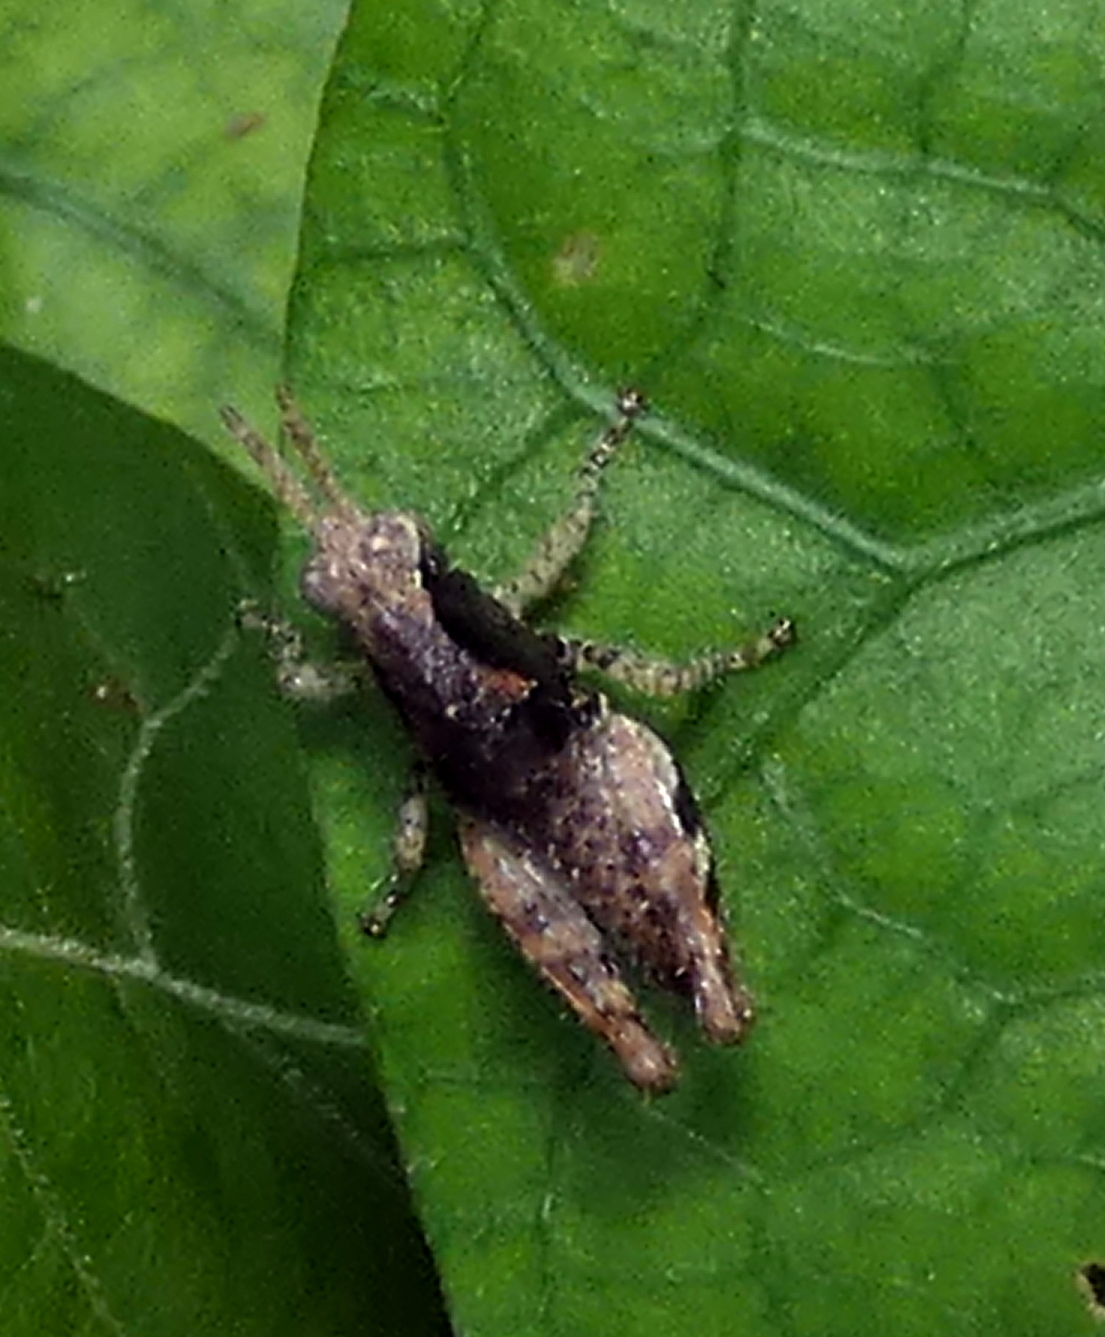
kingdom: Animalia
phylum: Arthropoda
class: Insecta
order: Orthoptera
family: Acrididae
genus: Eujivarus
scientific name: Eujivarus meridionalis
